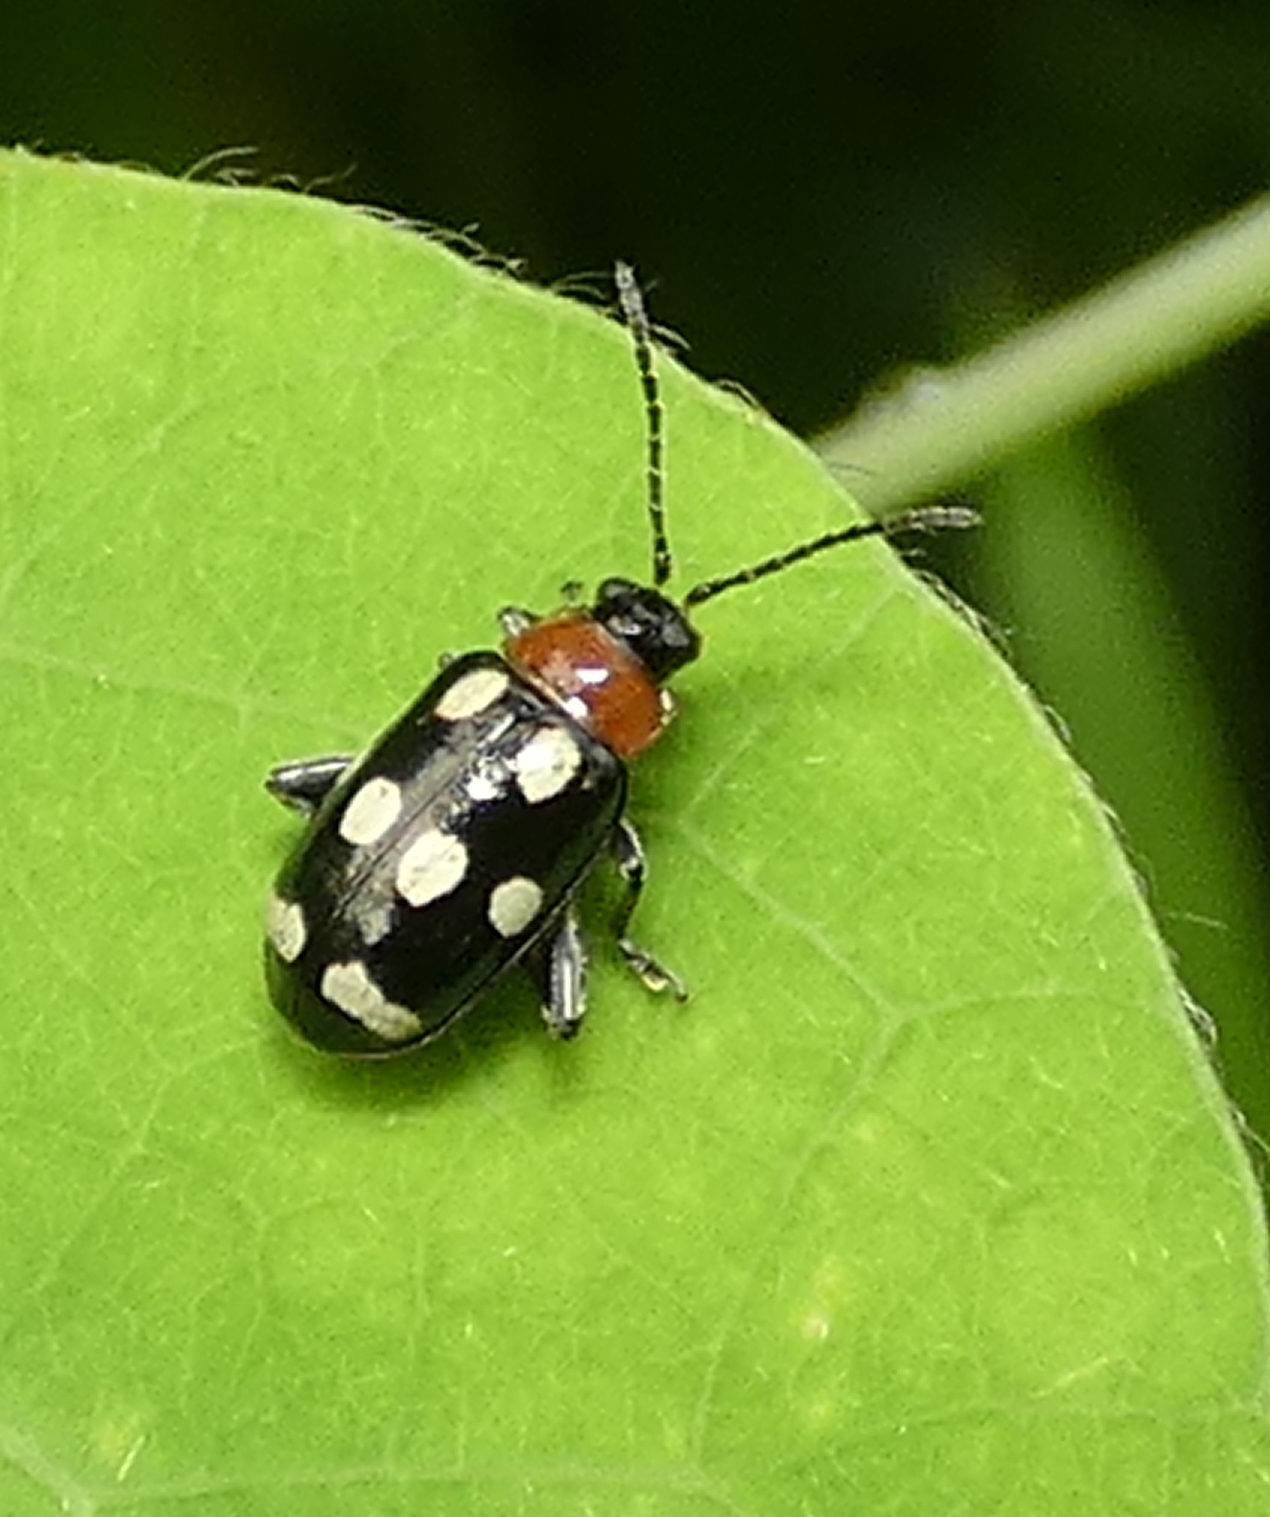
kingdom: Animalia
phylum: Arthropoda
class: Insecta
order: Coleoptera
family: Chrysomelidae
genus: Phenrica
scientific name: Phenrica austriaca
